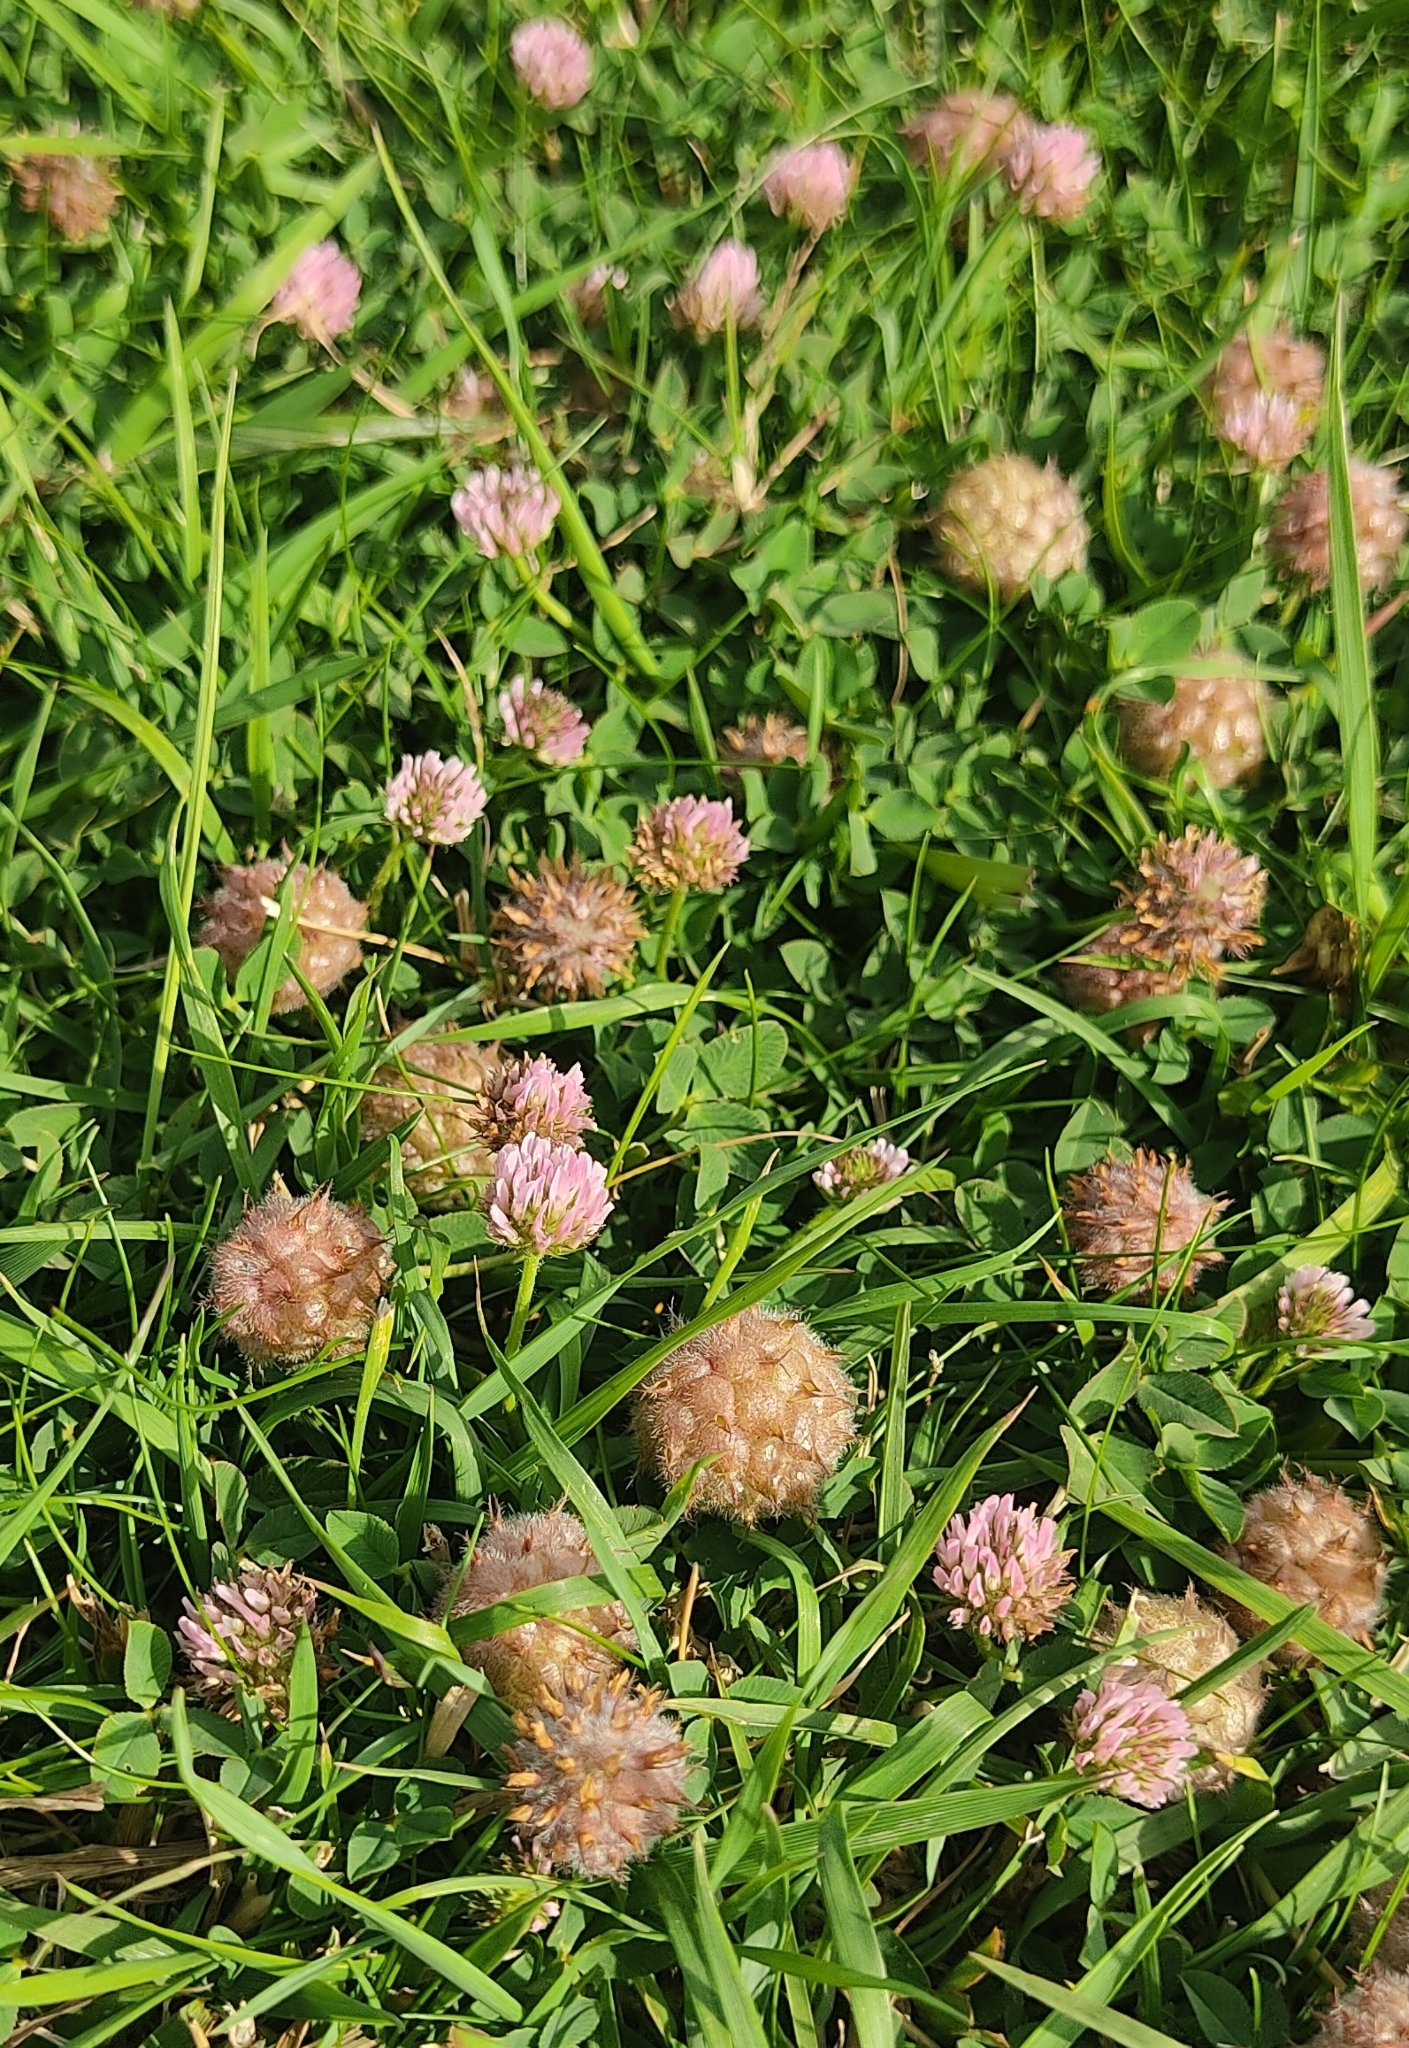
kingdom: Plantae
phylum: Tracheophyta
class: Magnoliopsida
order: Fabales
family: Fabaceae
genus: Trifolium
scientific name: Trifolium fragiferum
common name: Strawberry clover
